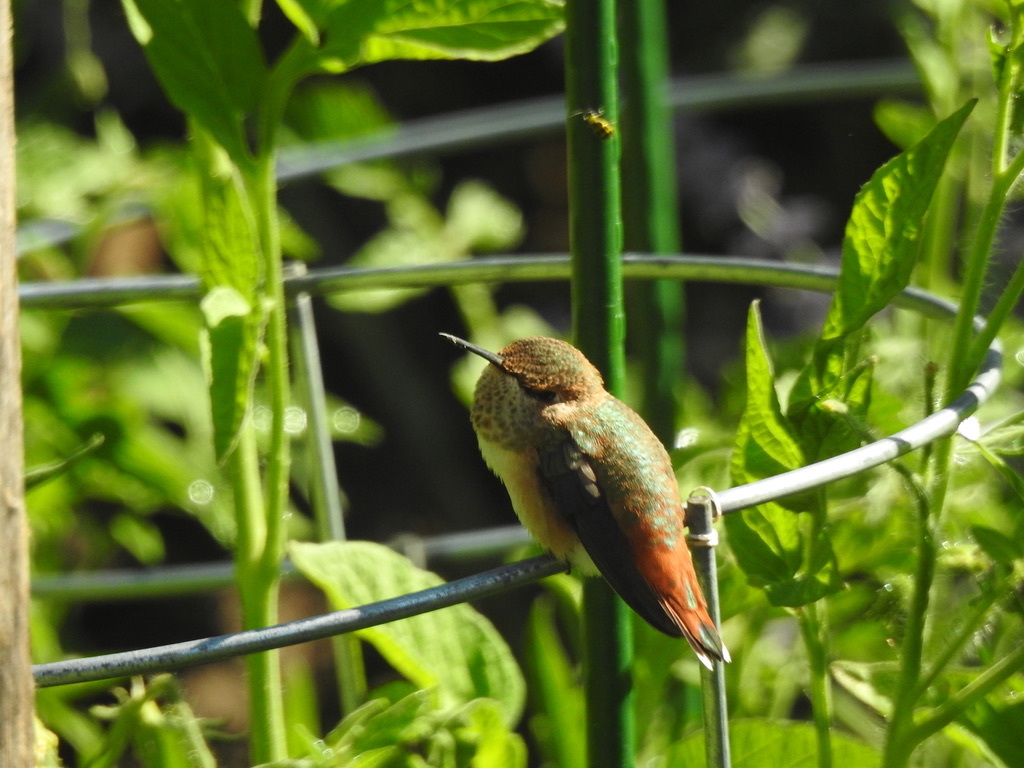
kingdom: Animalia
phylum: Chordata
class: Aves
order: Apodiformes
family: Trochilidae
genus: Selasphorus
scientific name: Selasphorus
